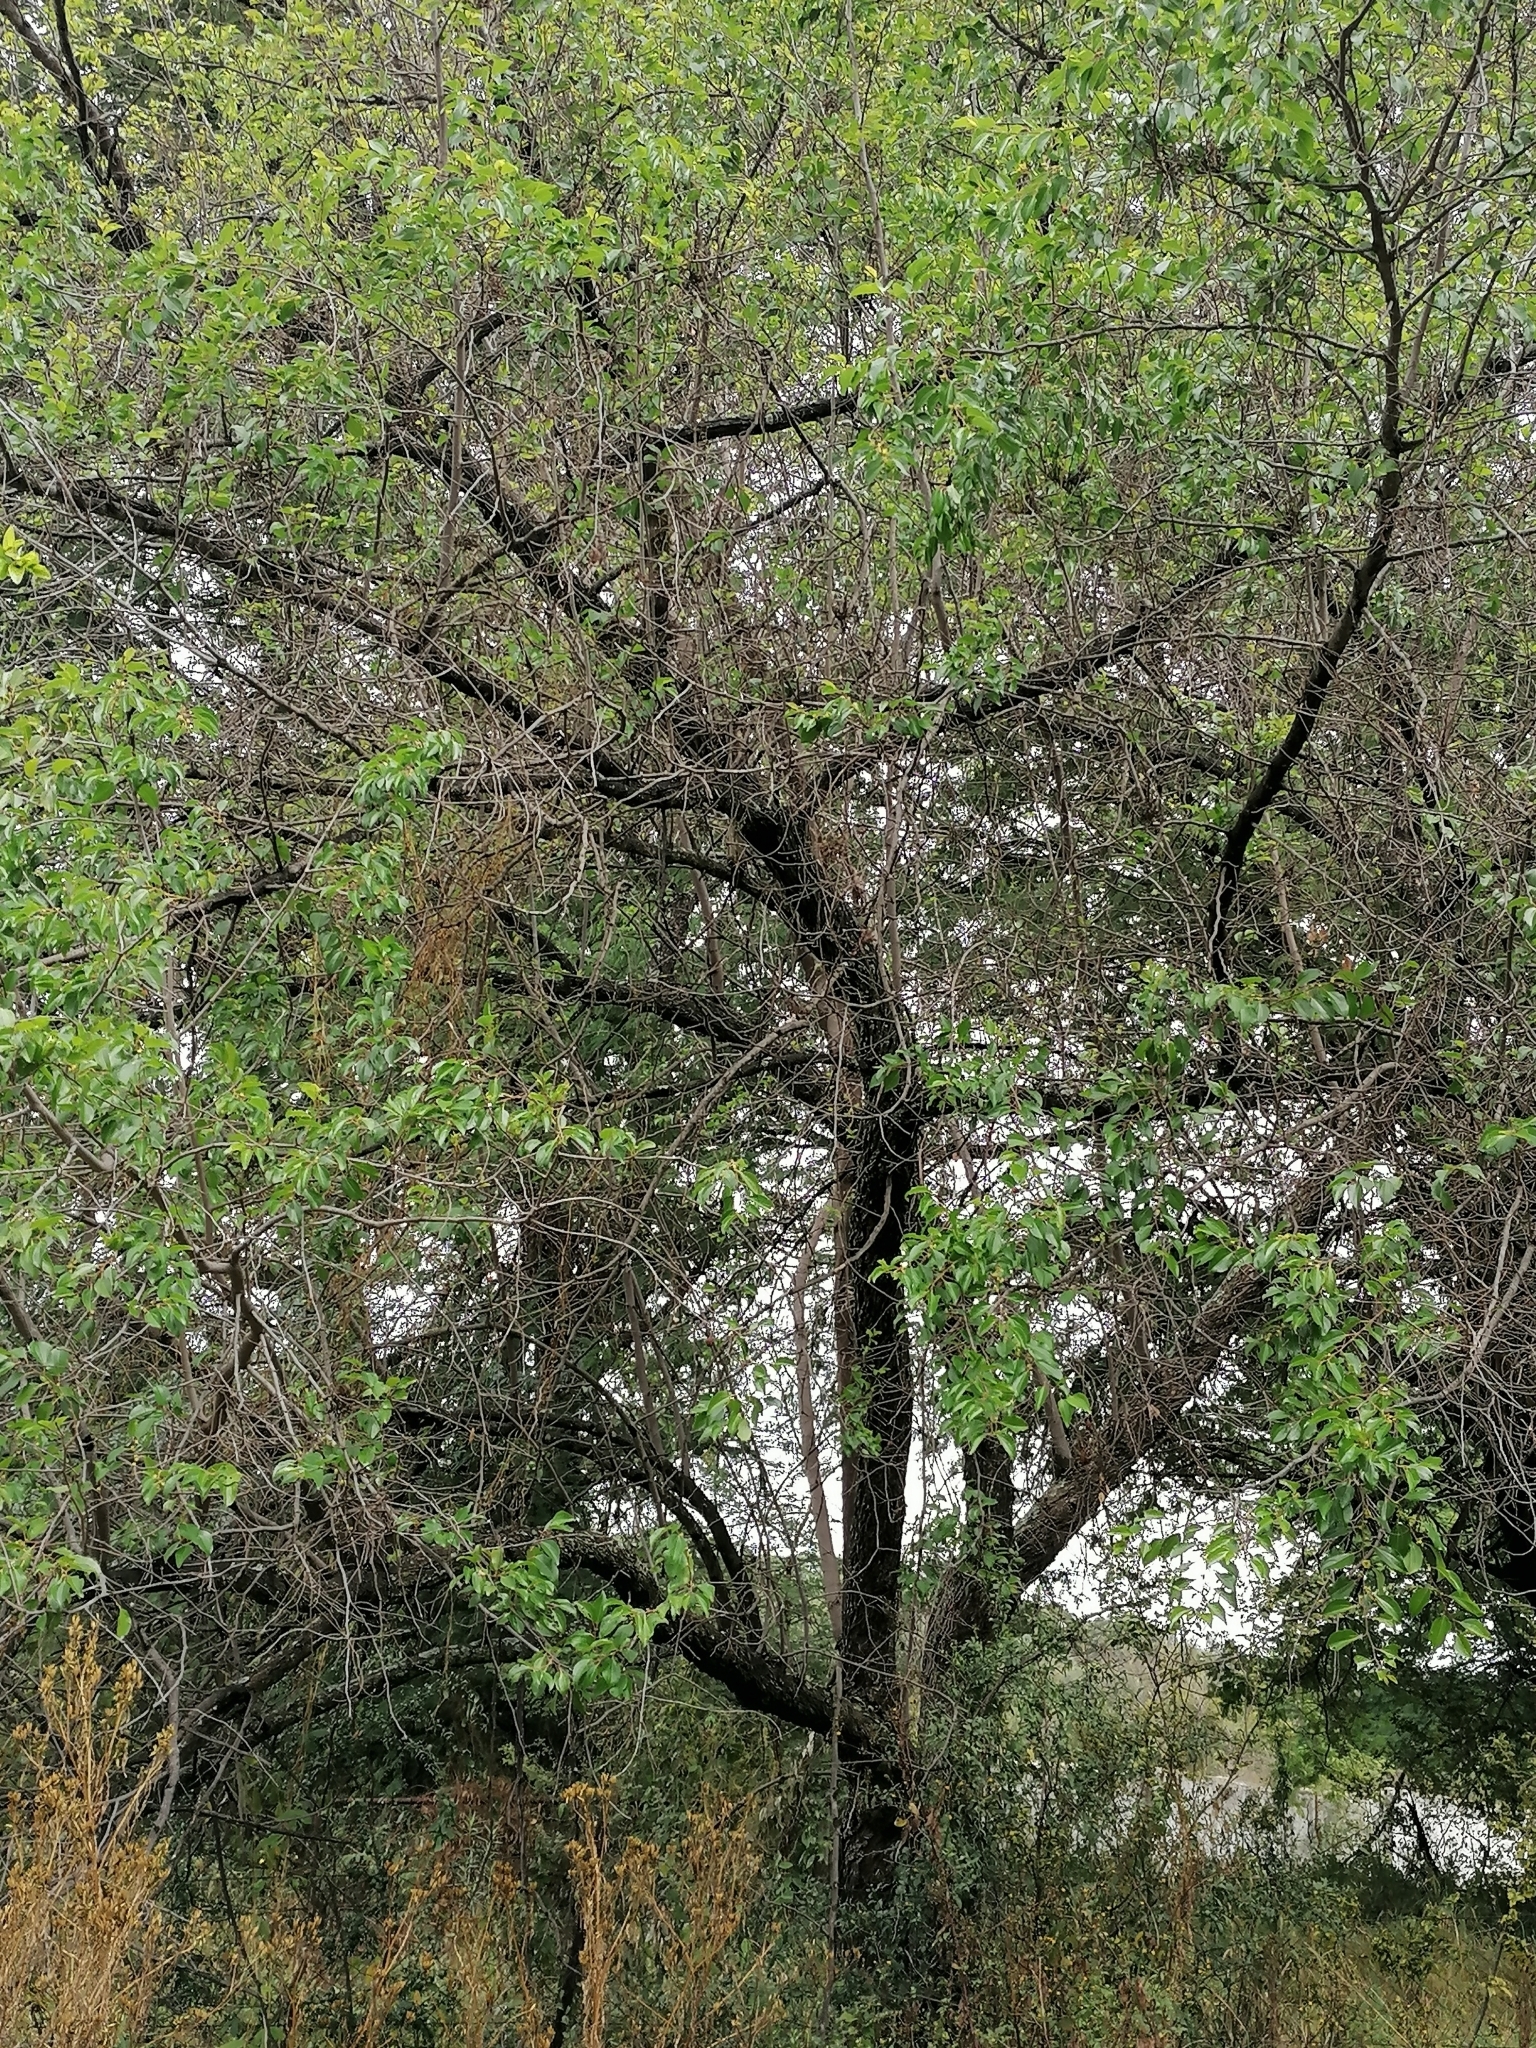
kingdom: Plantae
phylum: Tracheophyta
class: Magnoliopsida
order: Rosales
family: Rhamnaceae
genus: Ziziphus
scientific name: Ziziphus mucronata
